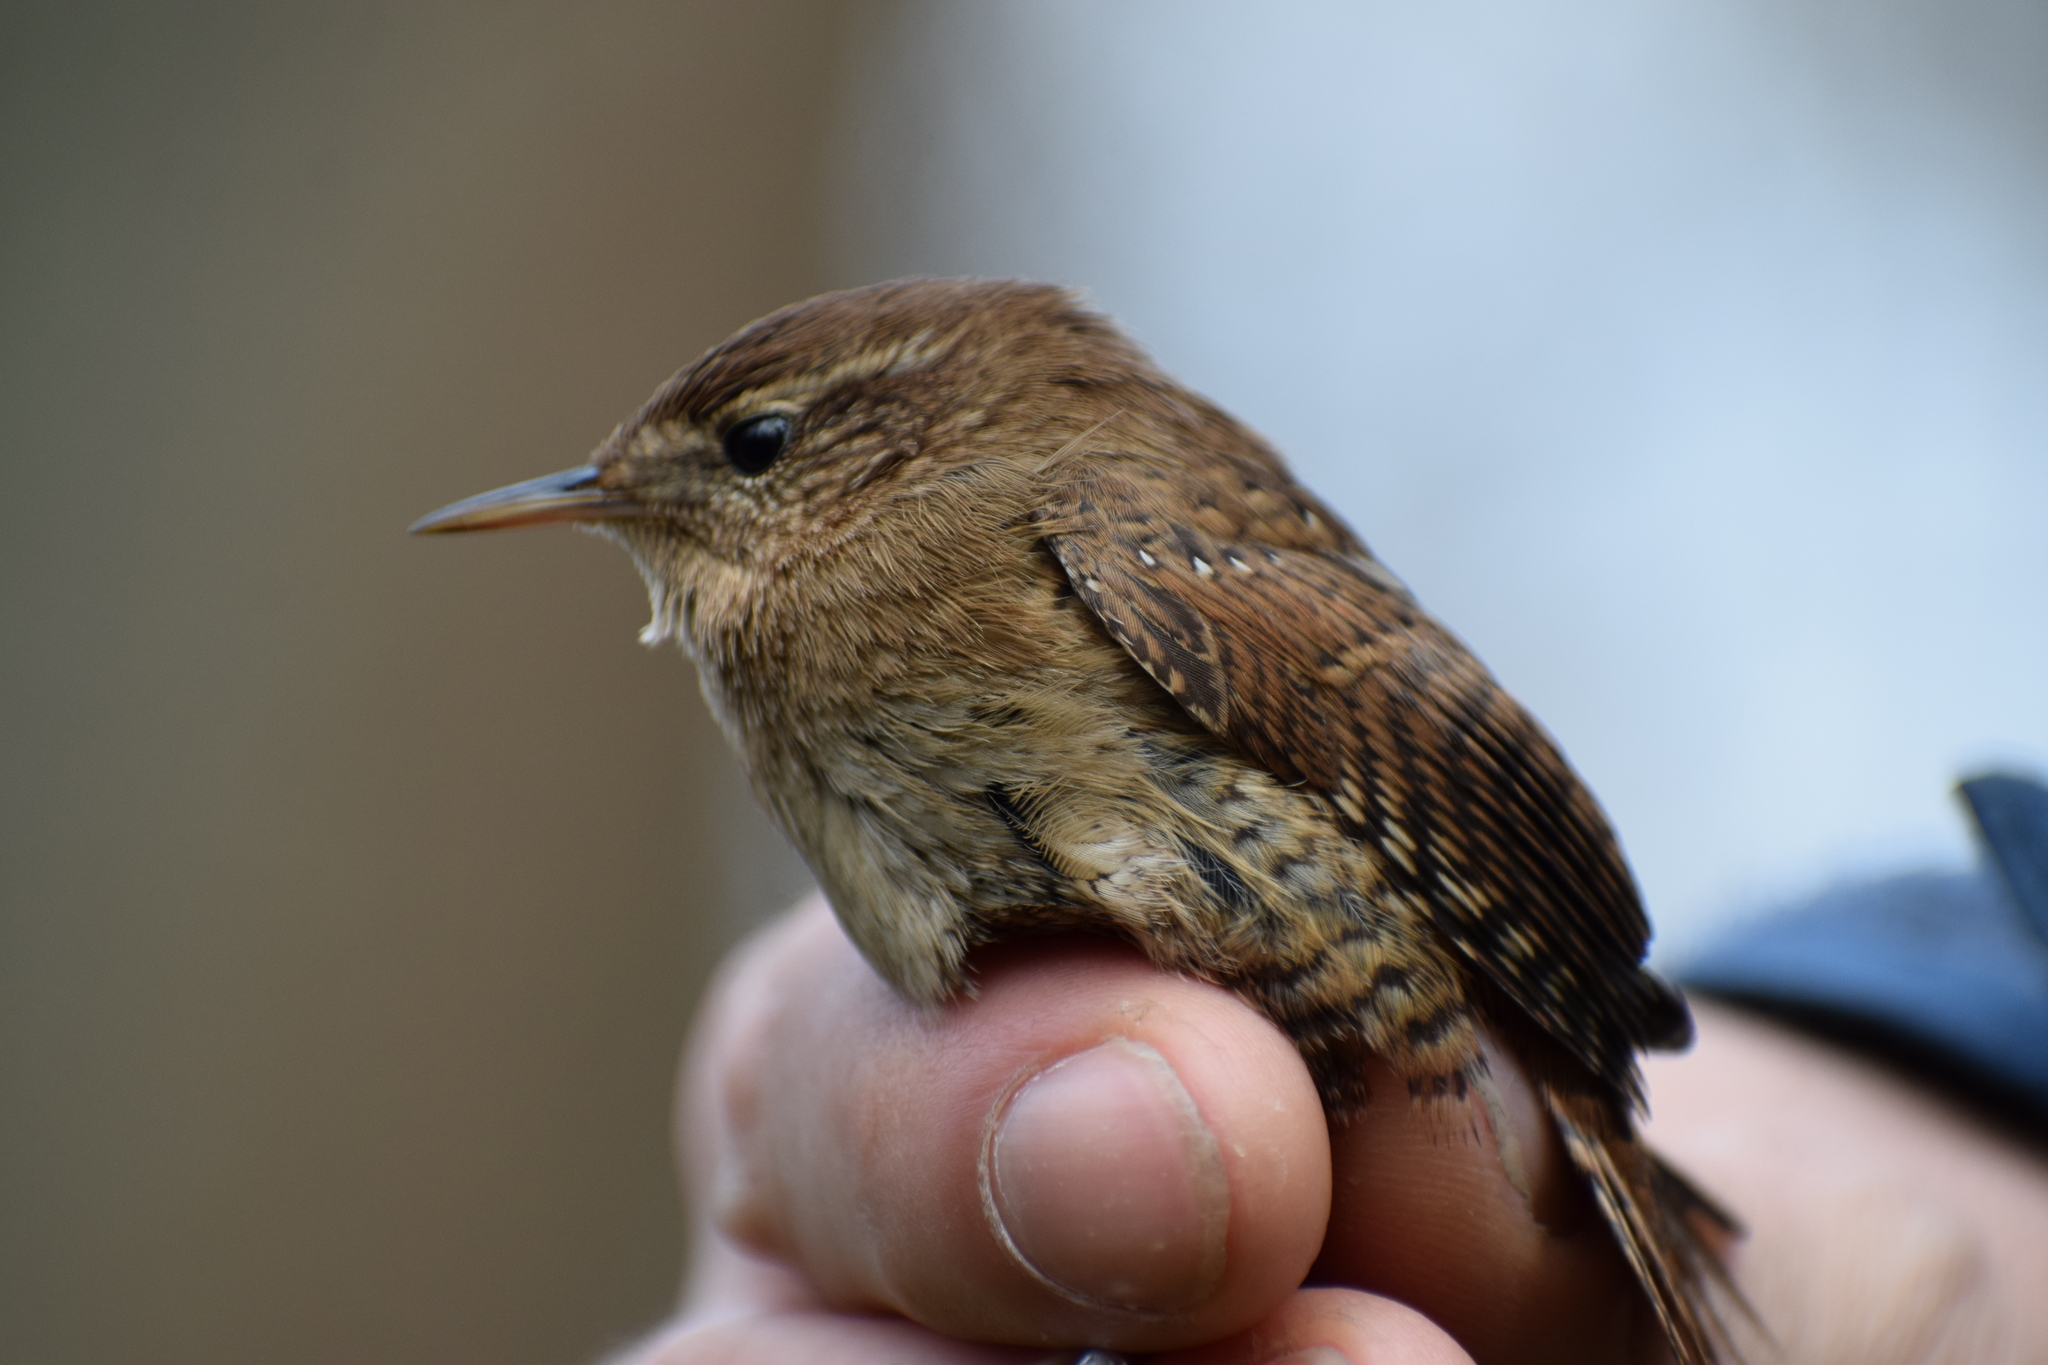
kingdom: Animalia
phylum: Chordata
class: Aves
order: Passeriformes
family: Troglodytidae
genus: Troglodytes
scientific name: Troglodytes troglodytes
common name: Eurasian wren
